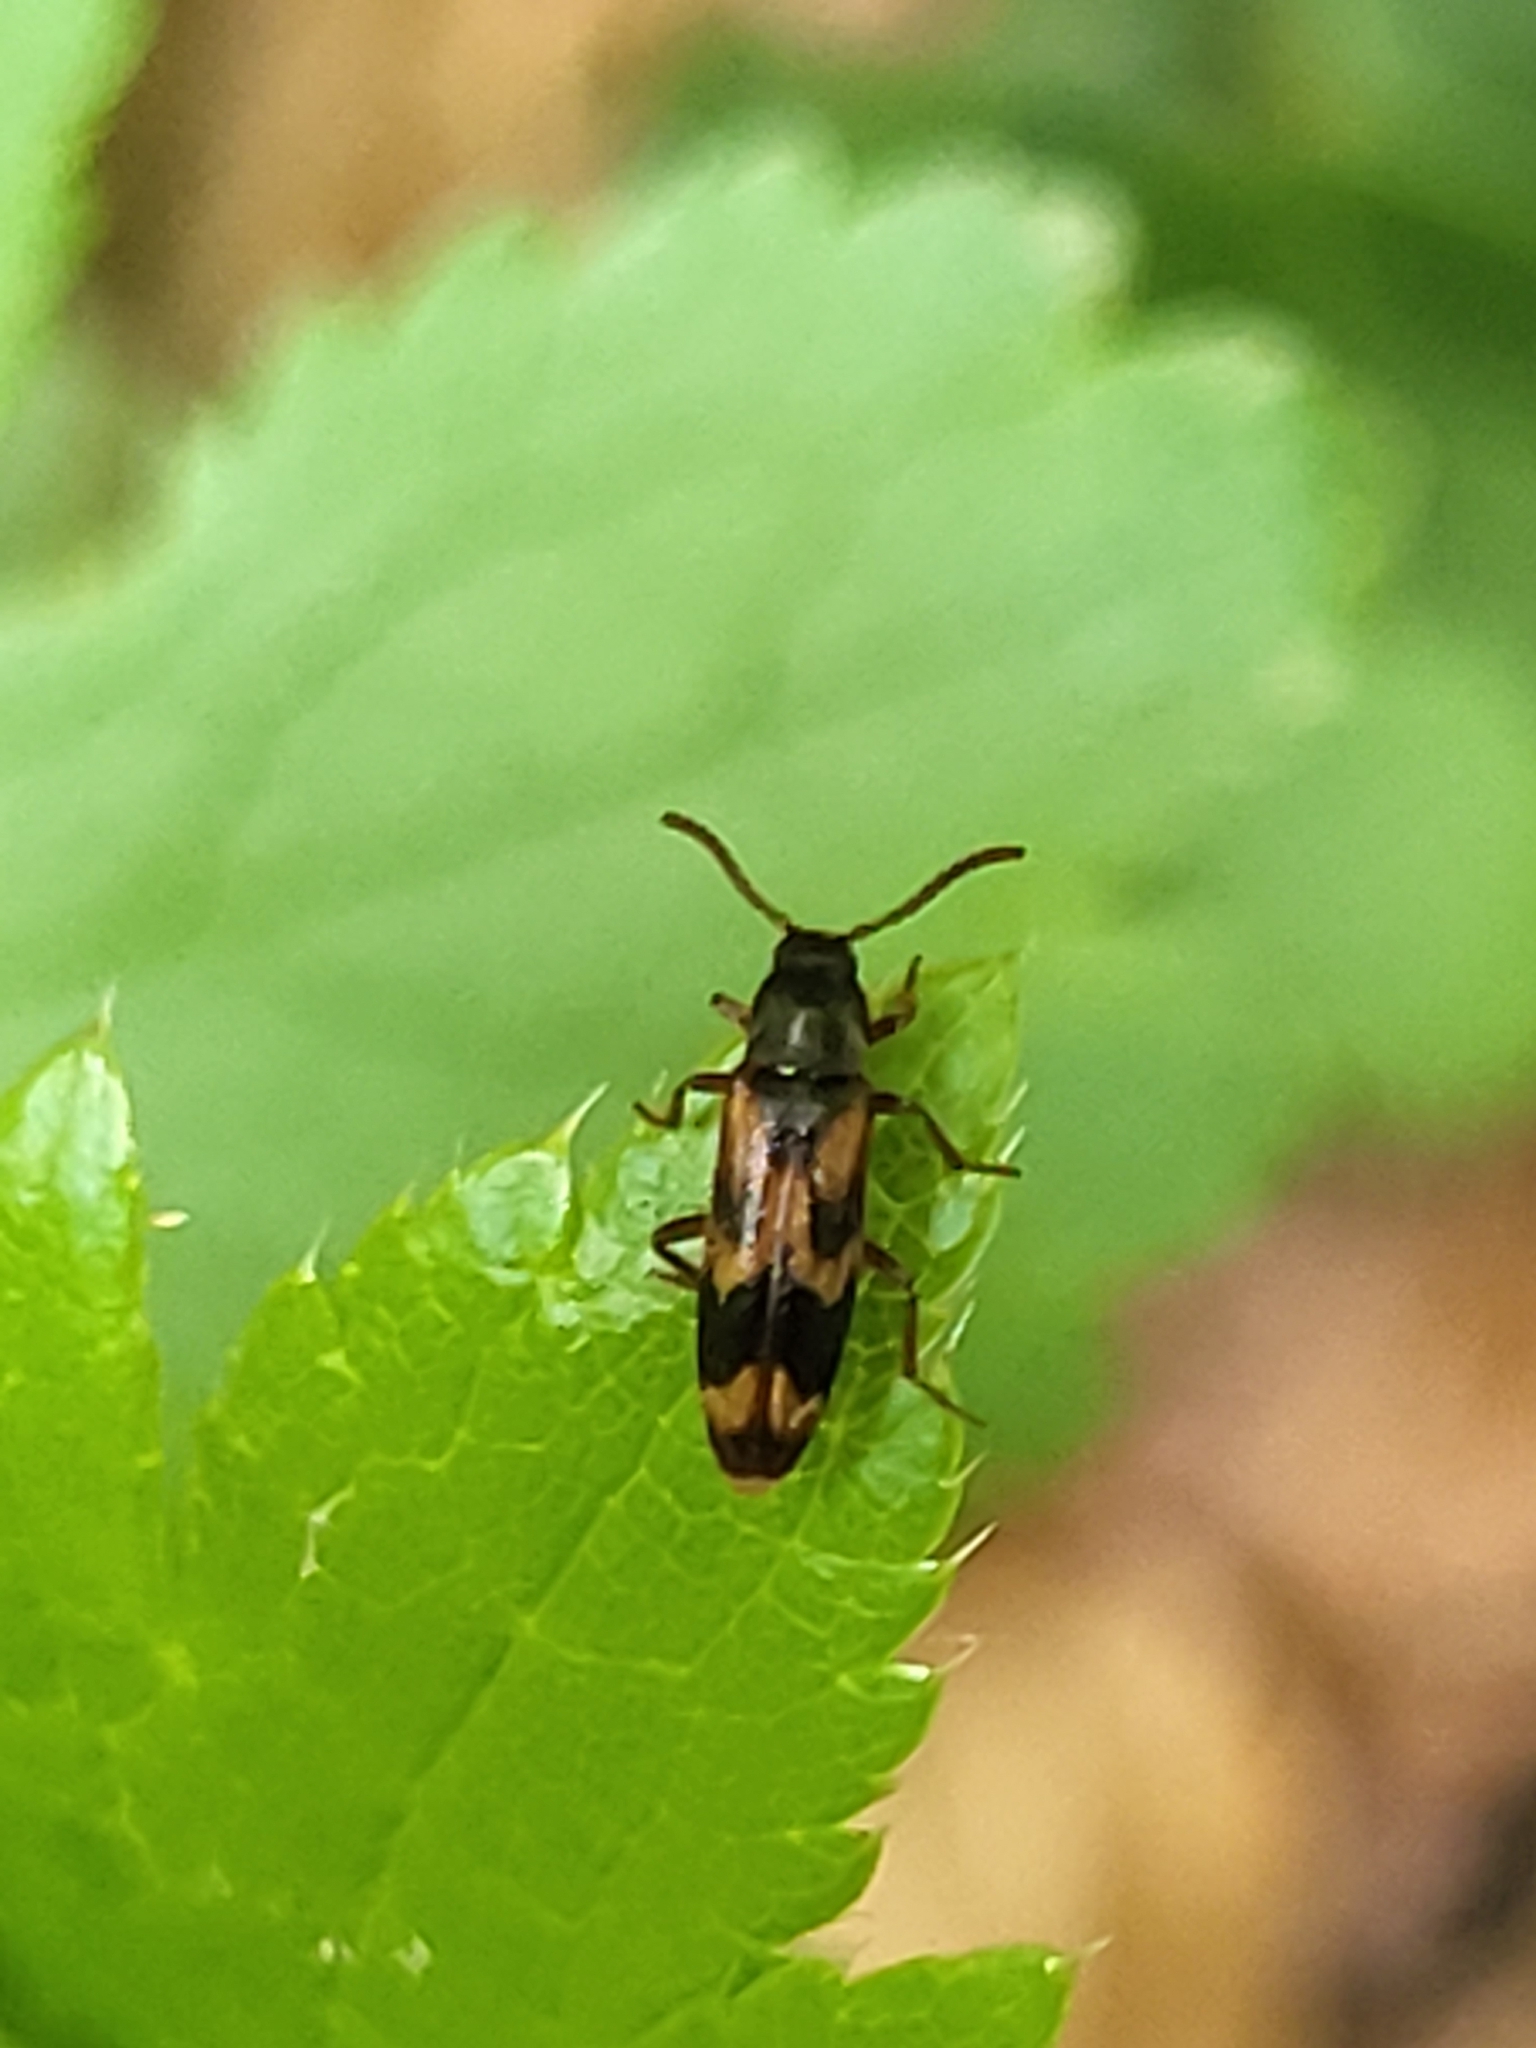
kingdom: Animalia
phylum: Arthropoda
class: Insecta
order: Coleoptera
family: Melandryidae
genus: Hypulus
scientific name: Hypulus quercinus
